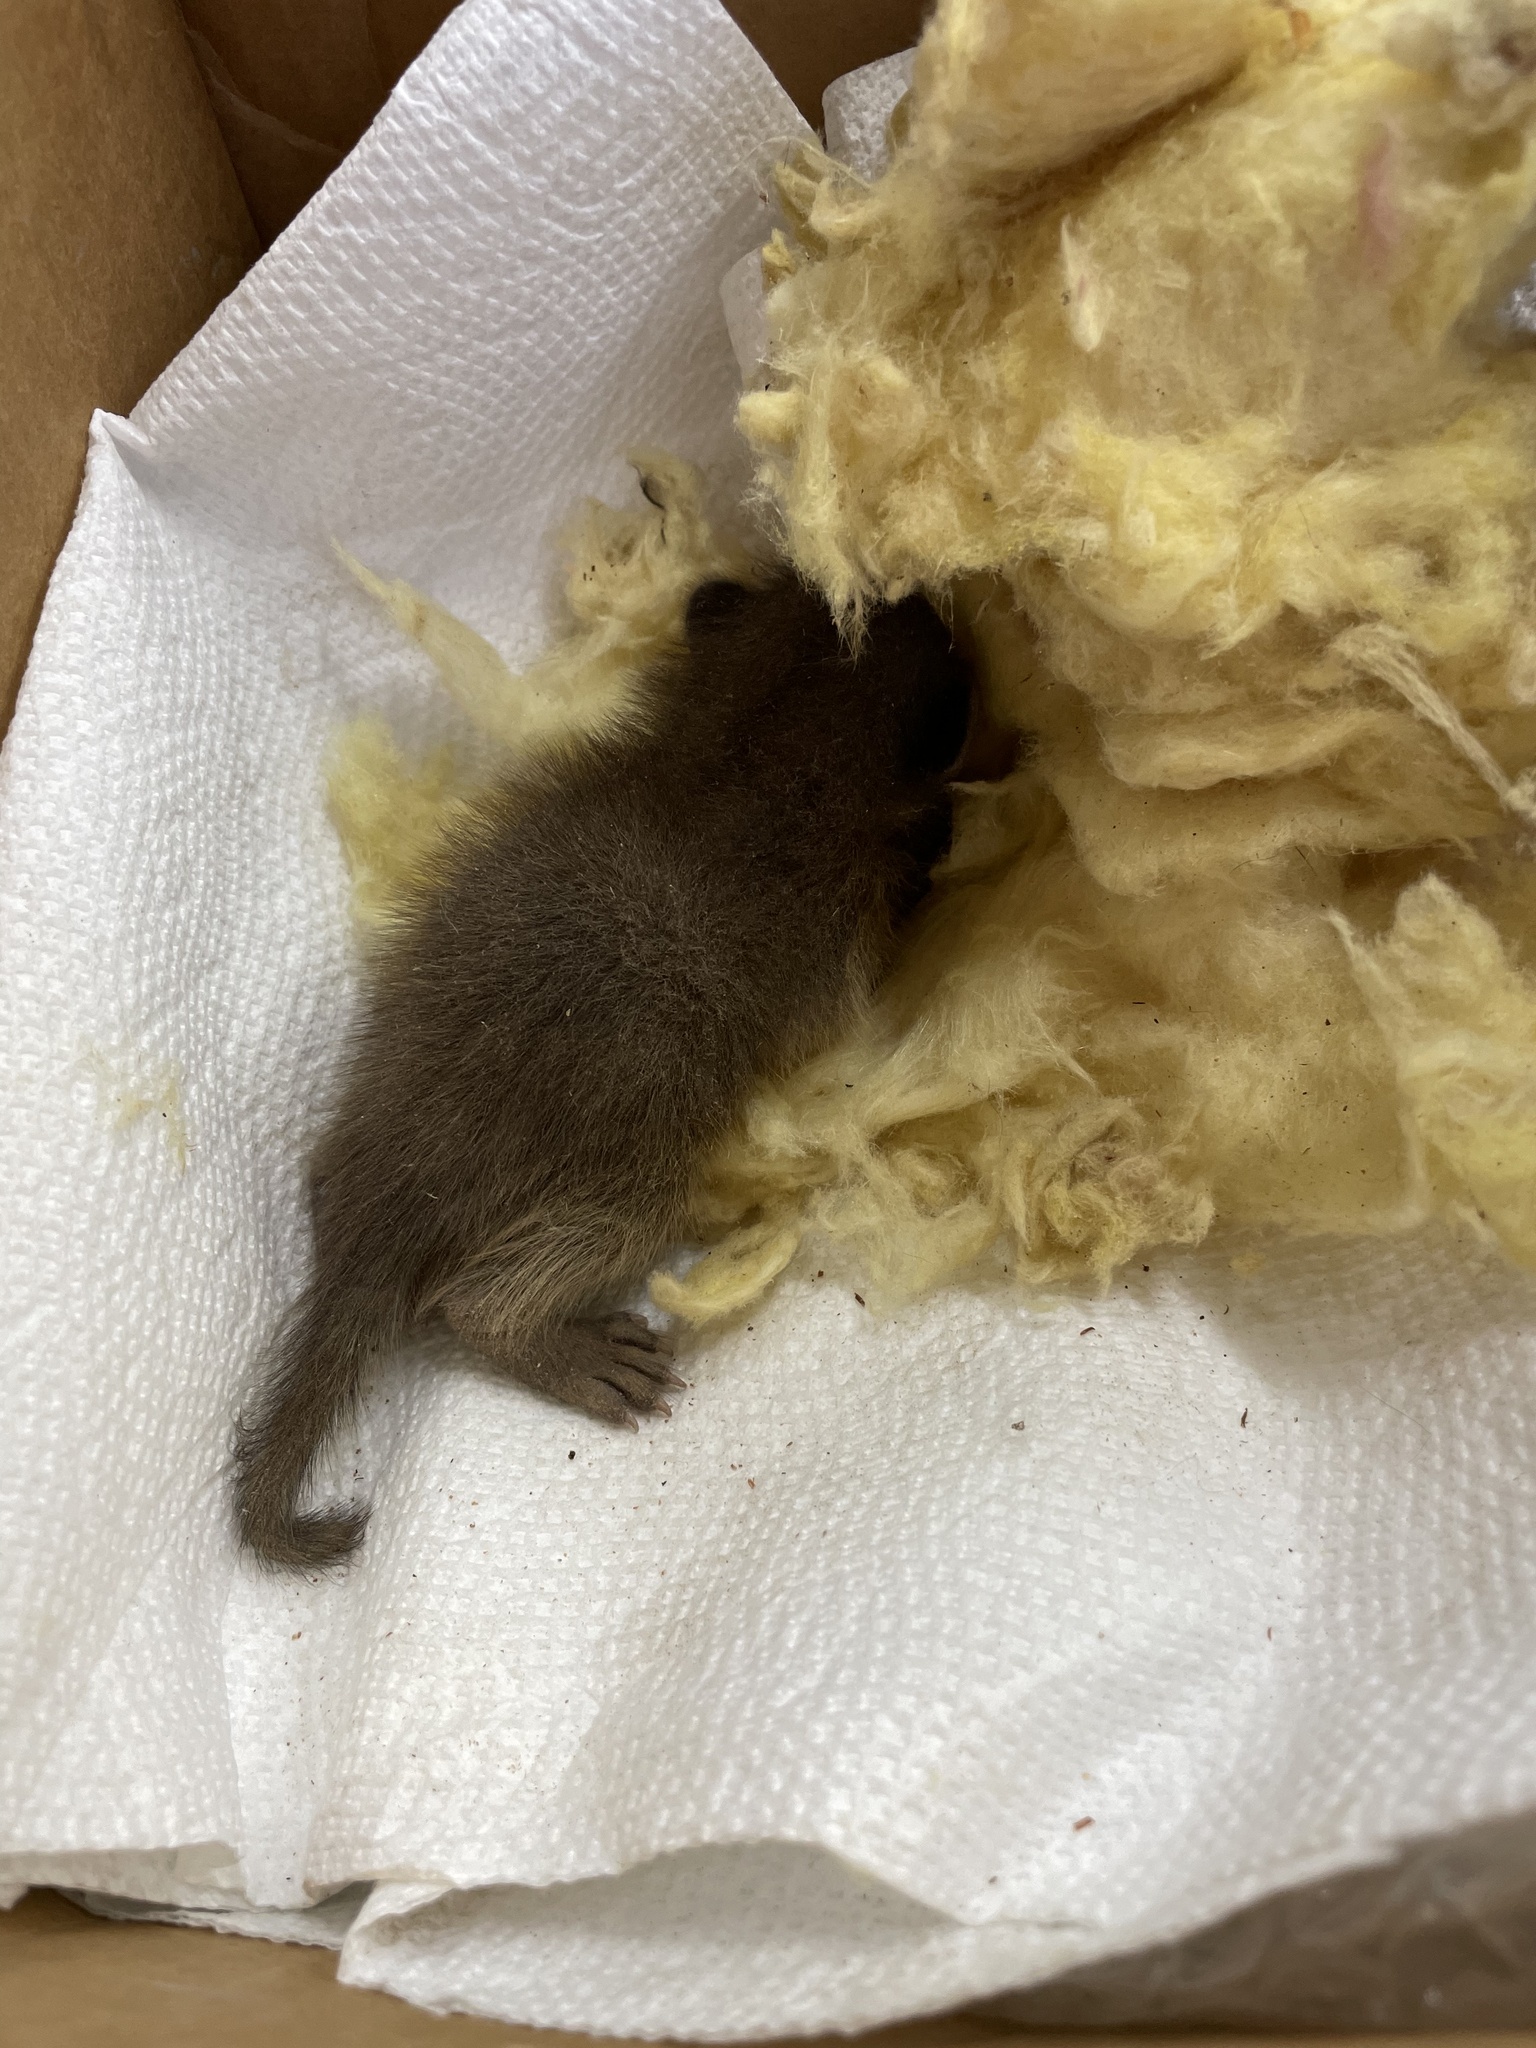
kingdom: Animalia
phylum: Chordata
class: Mammalia
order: Carnivora
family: Procyonidae
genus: Procyon
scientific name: Procyon lotor
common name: Raccoon
